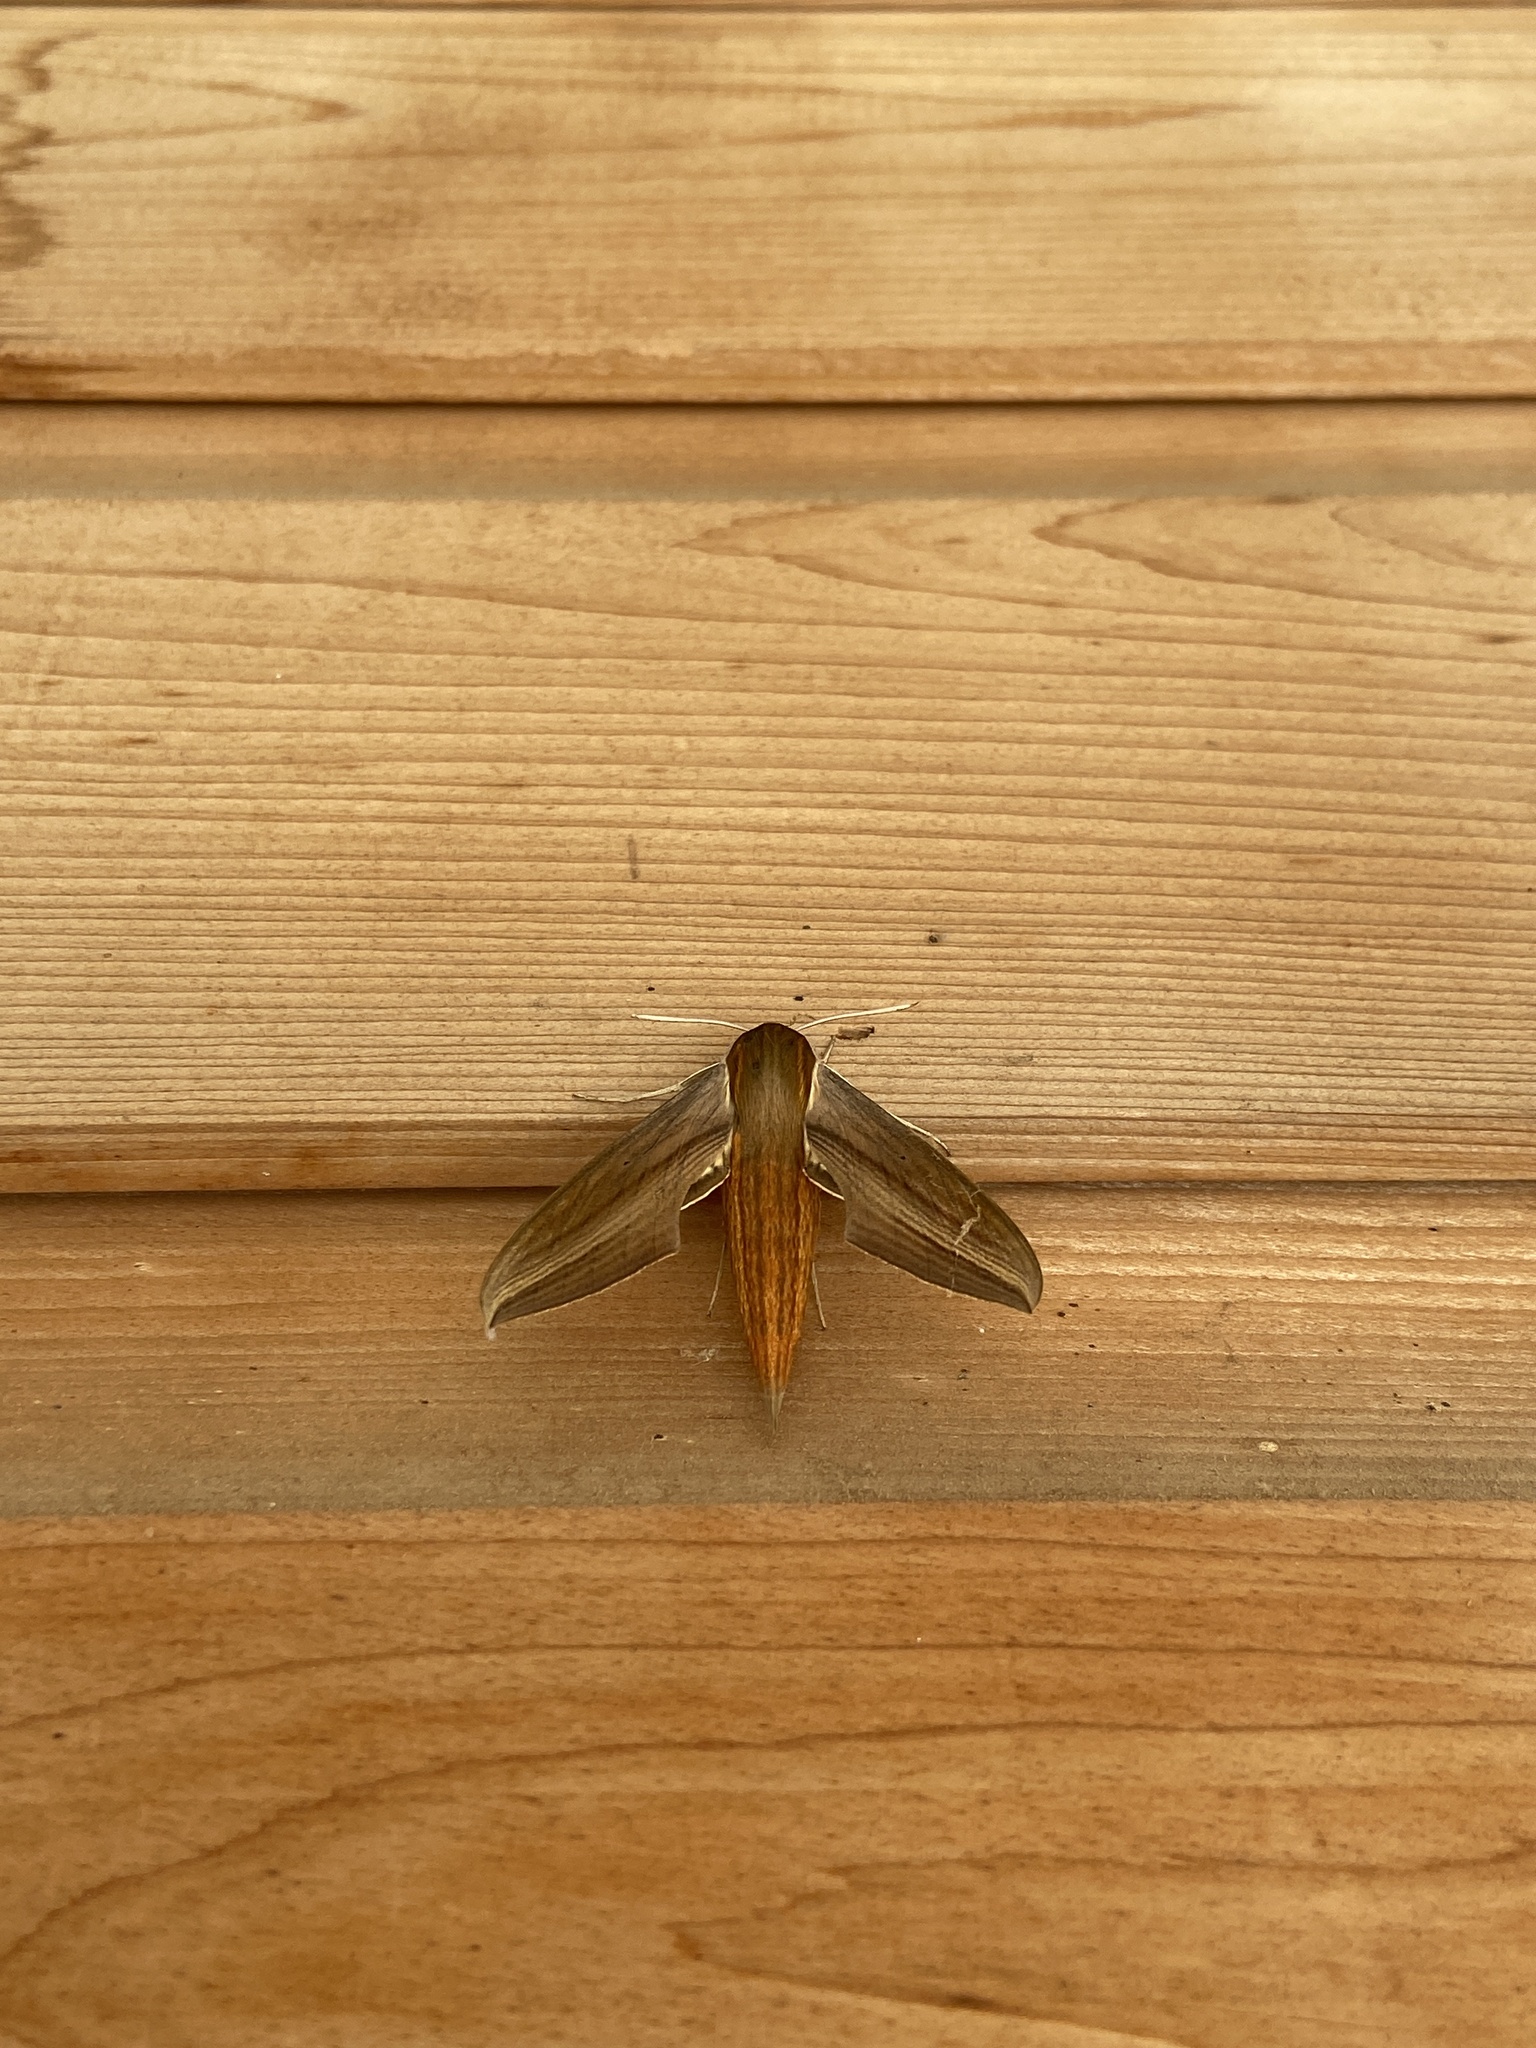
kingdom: Animalia
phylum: Arthropoda
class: Insecta
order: Lepidoptera
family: Sphingidae
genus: Xylophanes
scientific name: Xylophanes tersa
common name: Tersa sphinx
